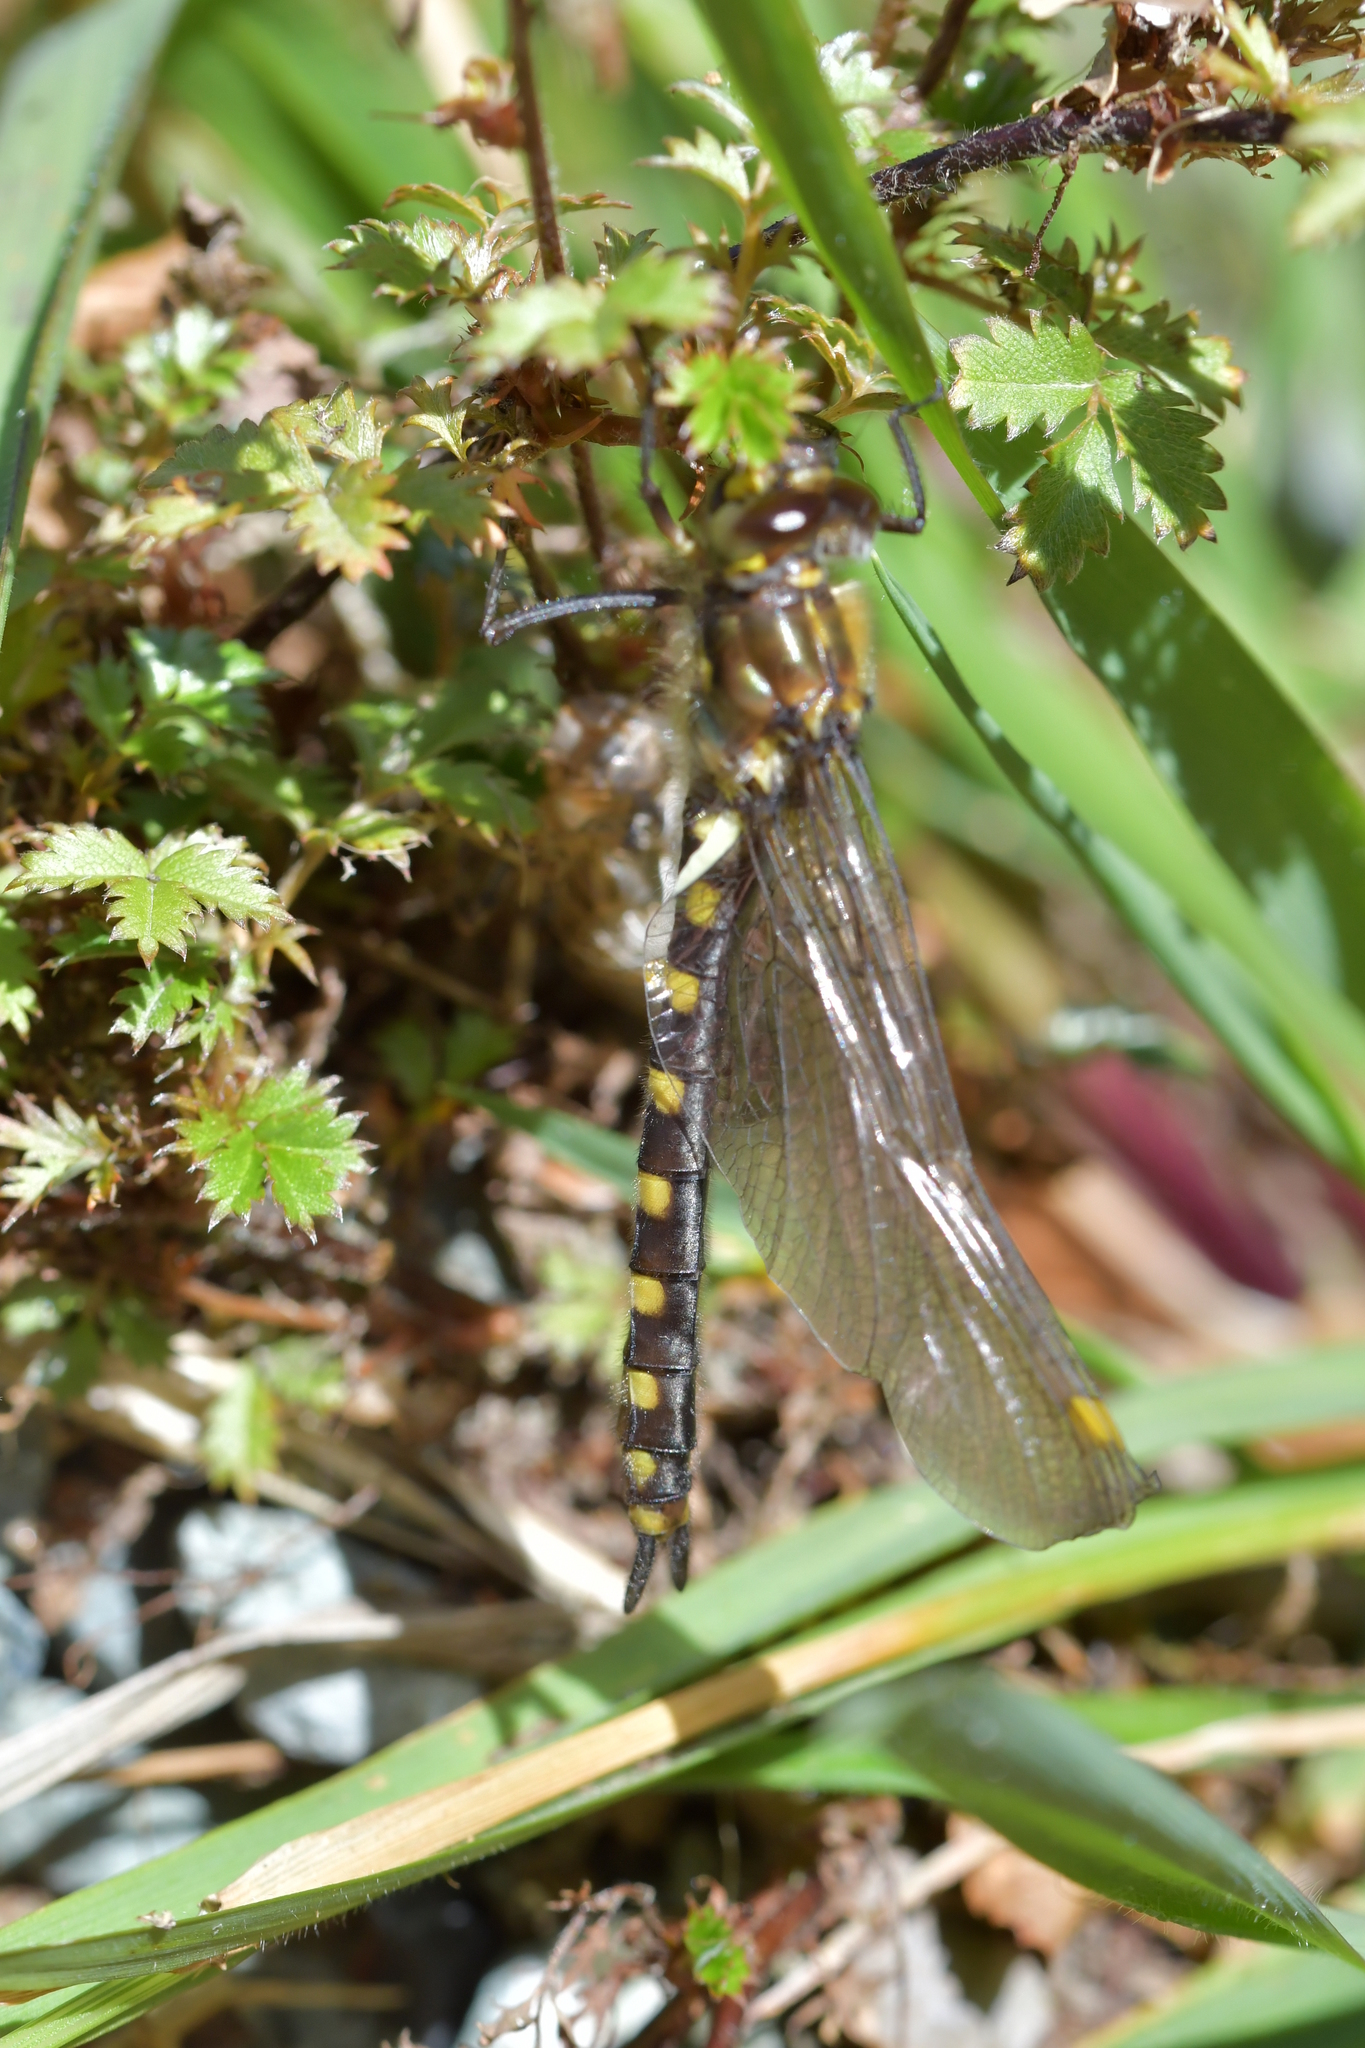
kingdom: Animalia
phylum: Arthropoda
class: Insecta
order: Odonata
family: Corduliidae
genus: Procordulia
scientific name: Procordulia grayi
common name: Yellow spotted dragonfly
